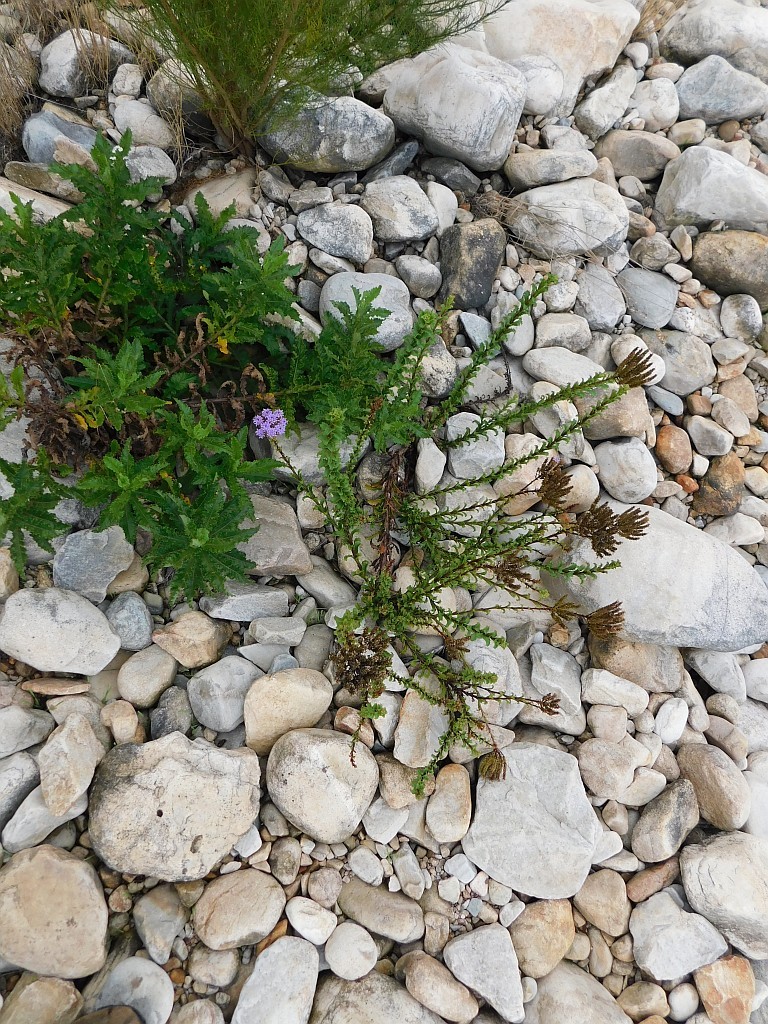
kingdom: Plantae
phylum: Tracheophyta
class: Magnoliopsida
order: Lamiales
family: Scrophulariaceae
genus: Pseudoselago
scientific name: Pseudoselago serrata
